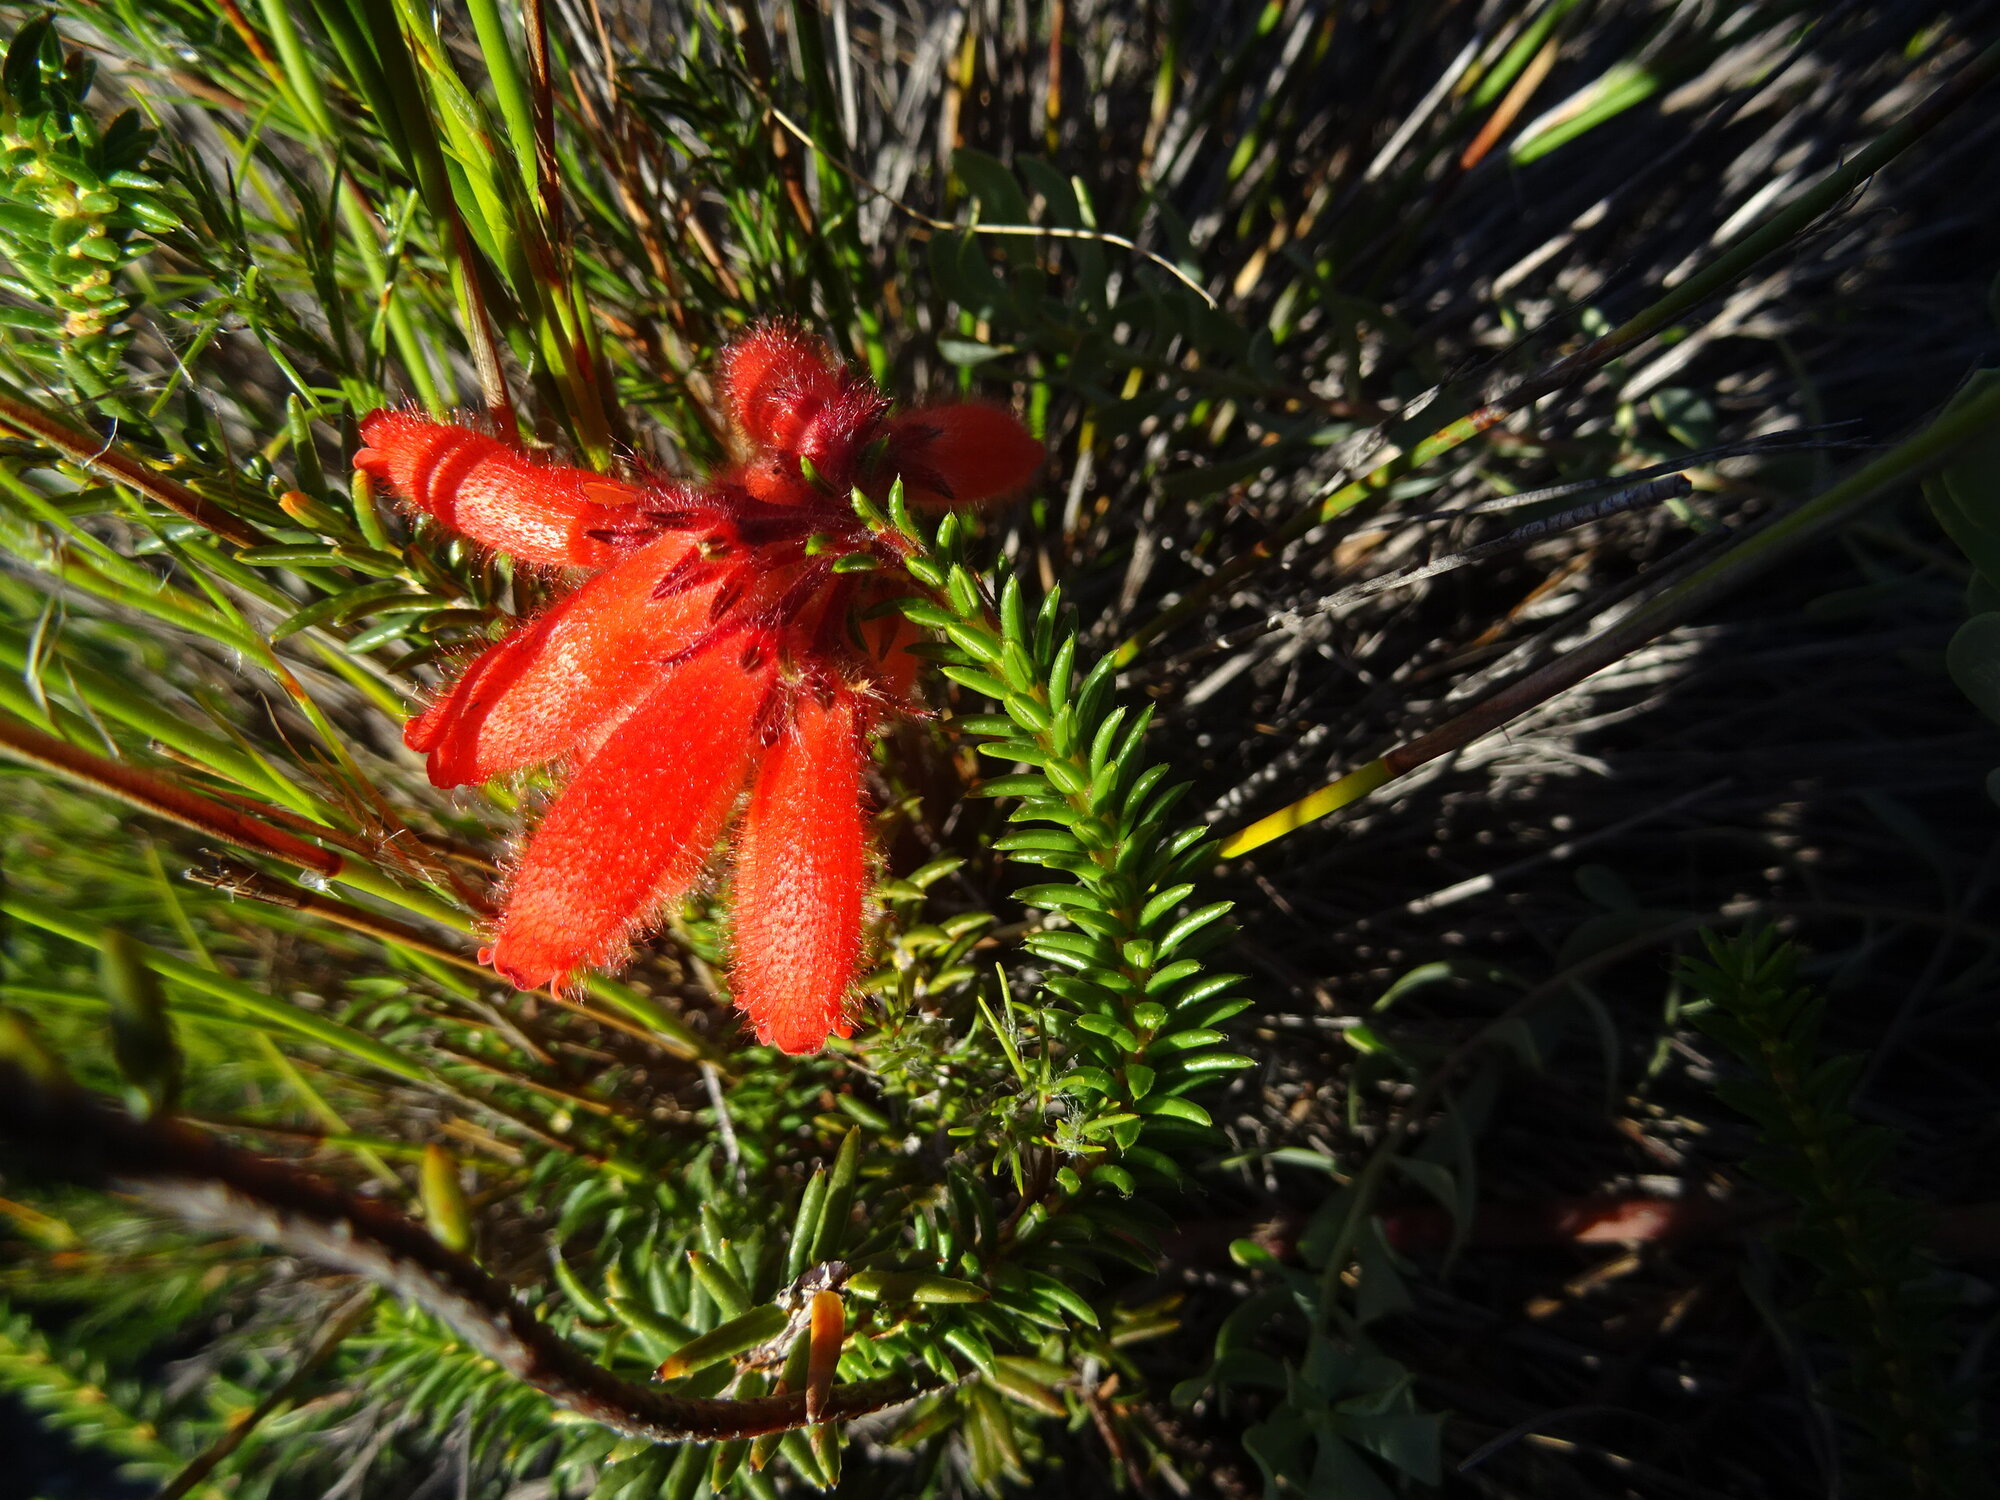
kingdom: Plantae
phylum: Tracheophyta
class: Magnoliopsida
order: Ericales
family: Ericaceae
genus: Erica
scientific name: Erica cerinthoides
